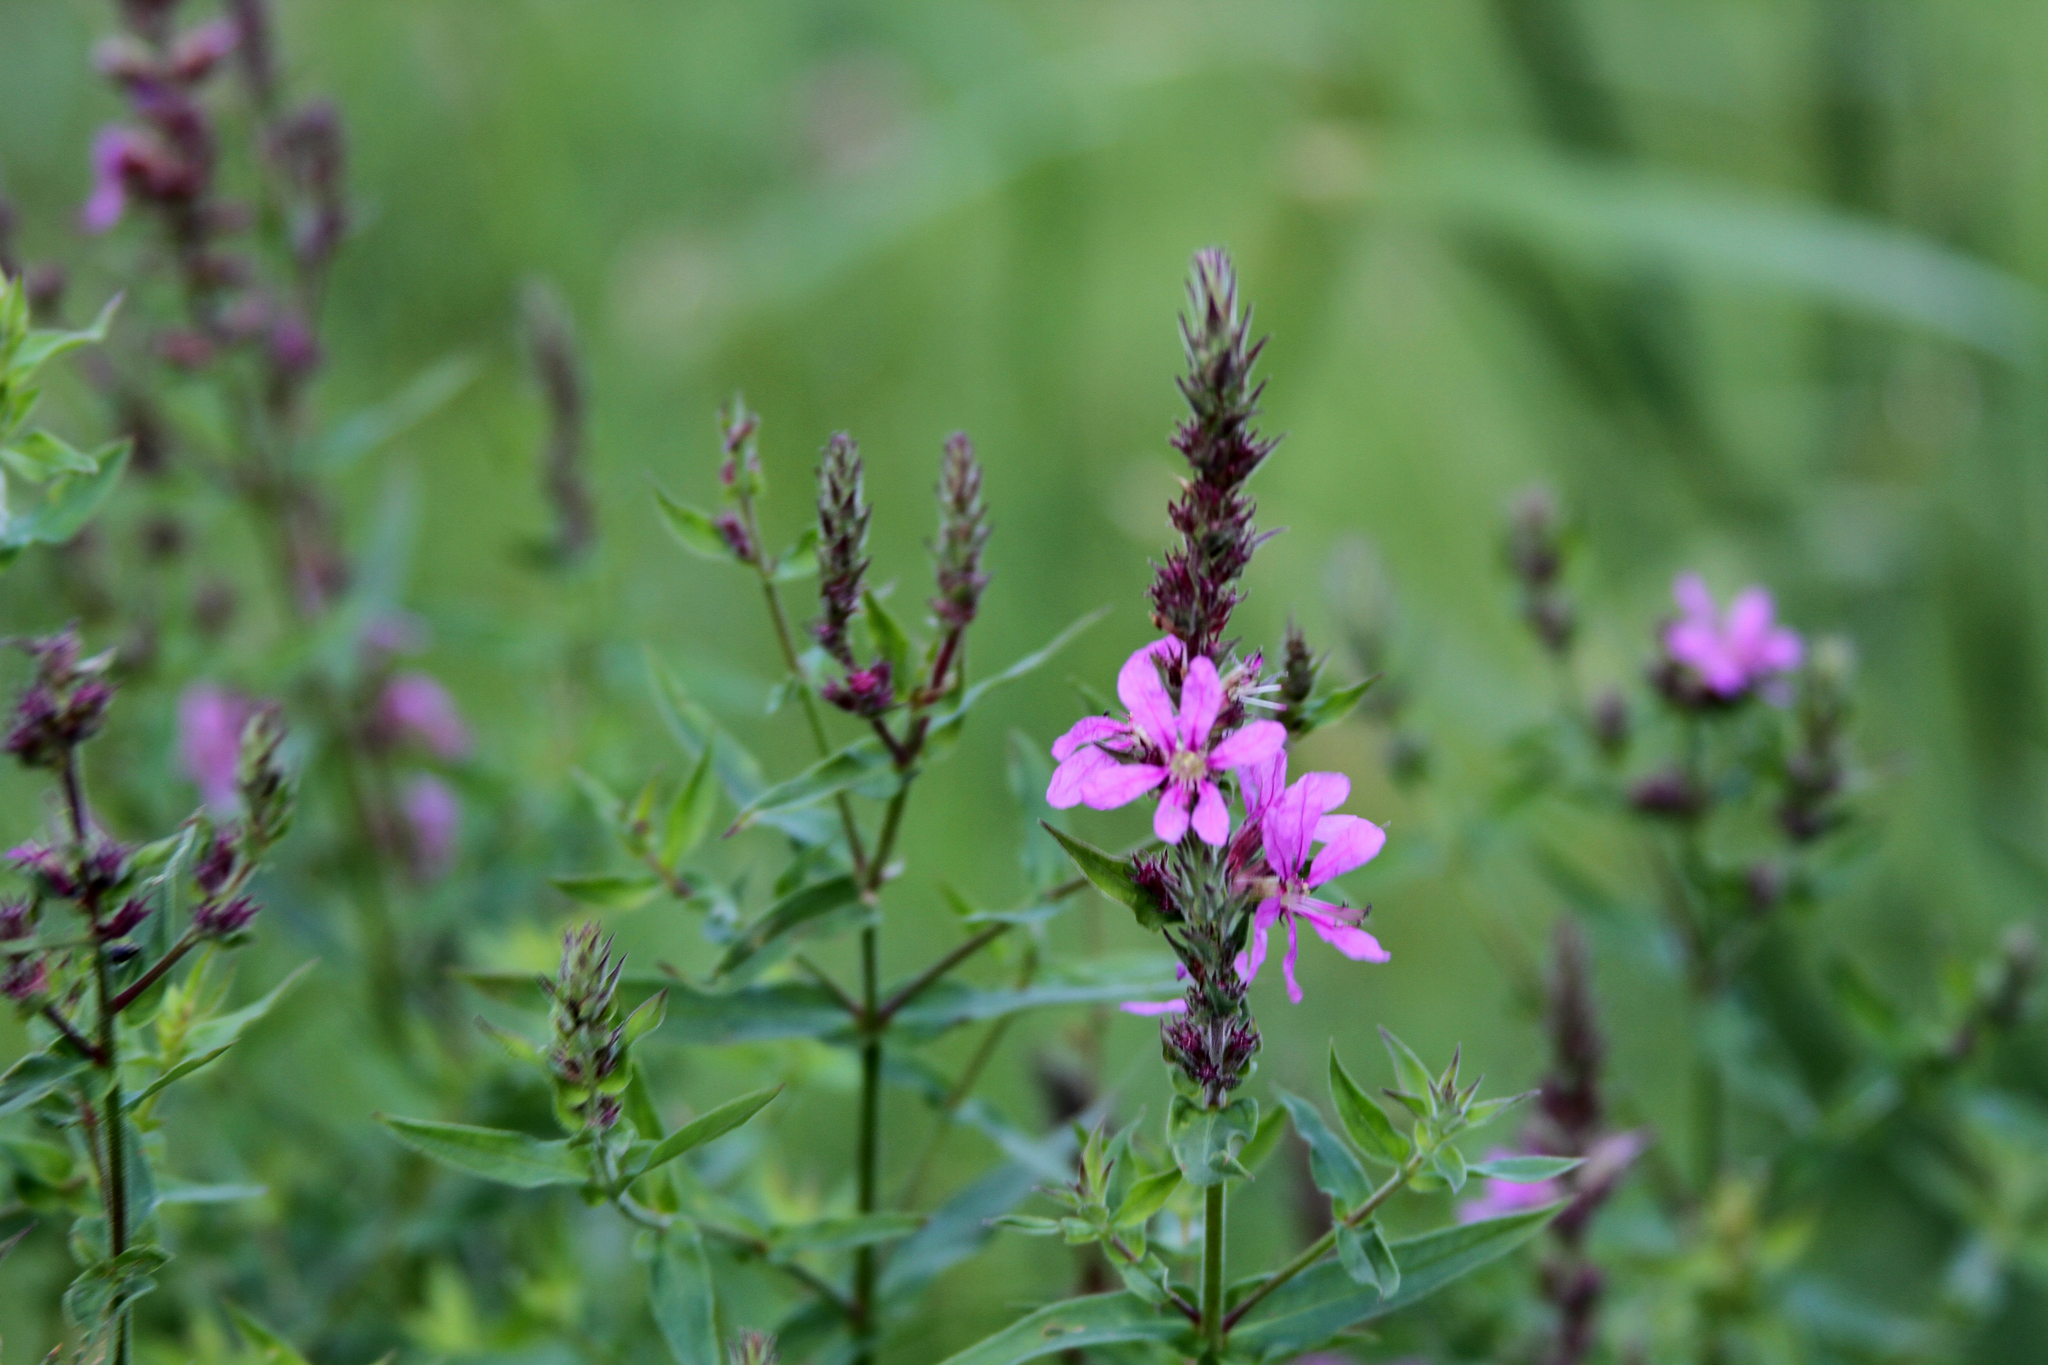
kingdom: Plantae
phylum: Tracheophyta
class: Magnoliopsida
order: Myrtales
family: Lythraceae
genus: Lythrum
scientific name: Lythrum salicaria
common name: Purple loosestrife
